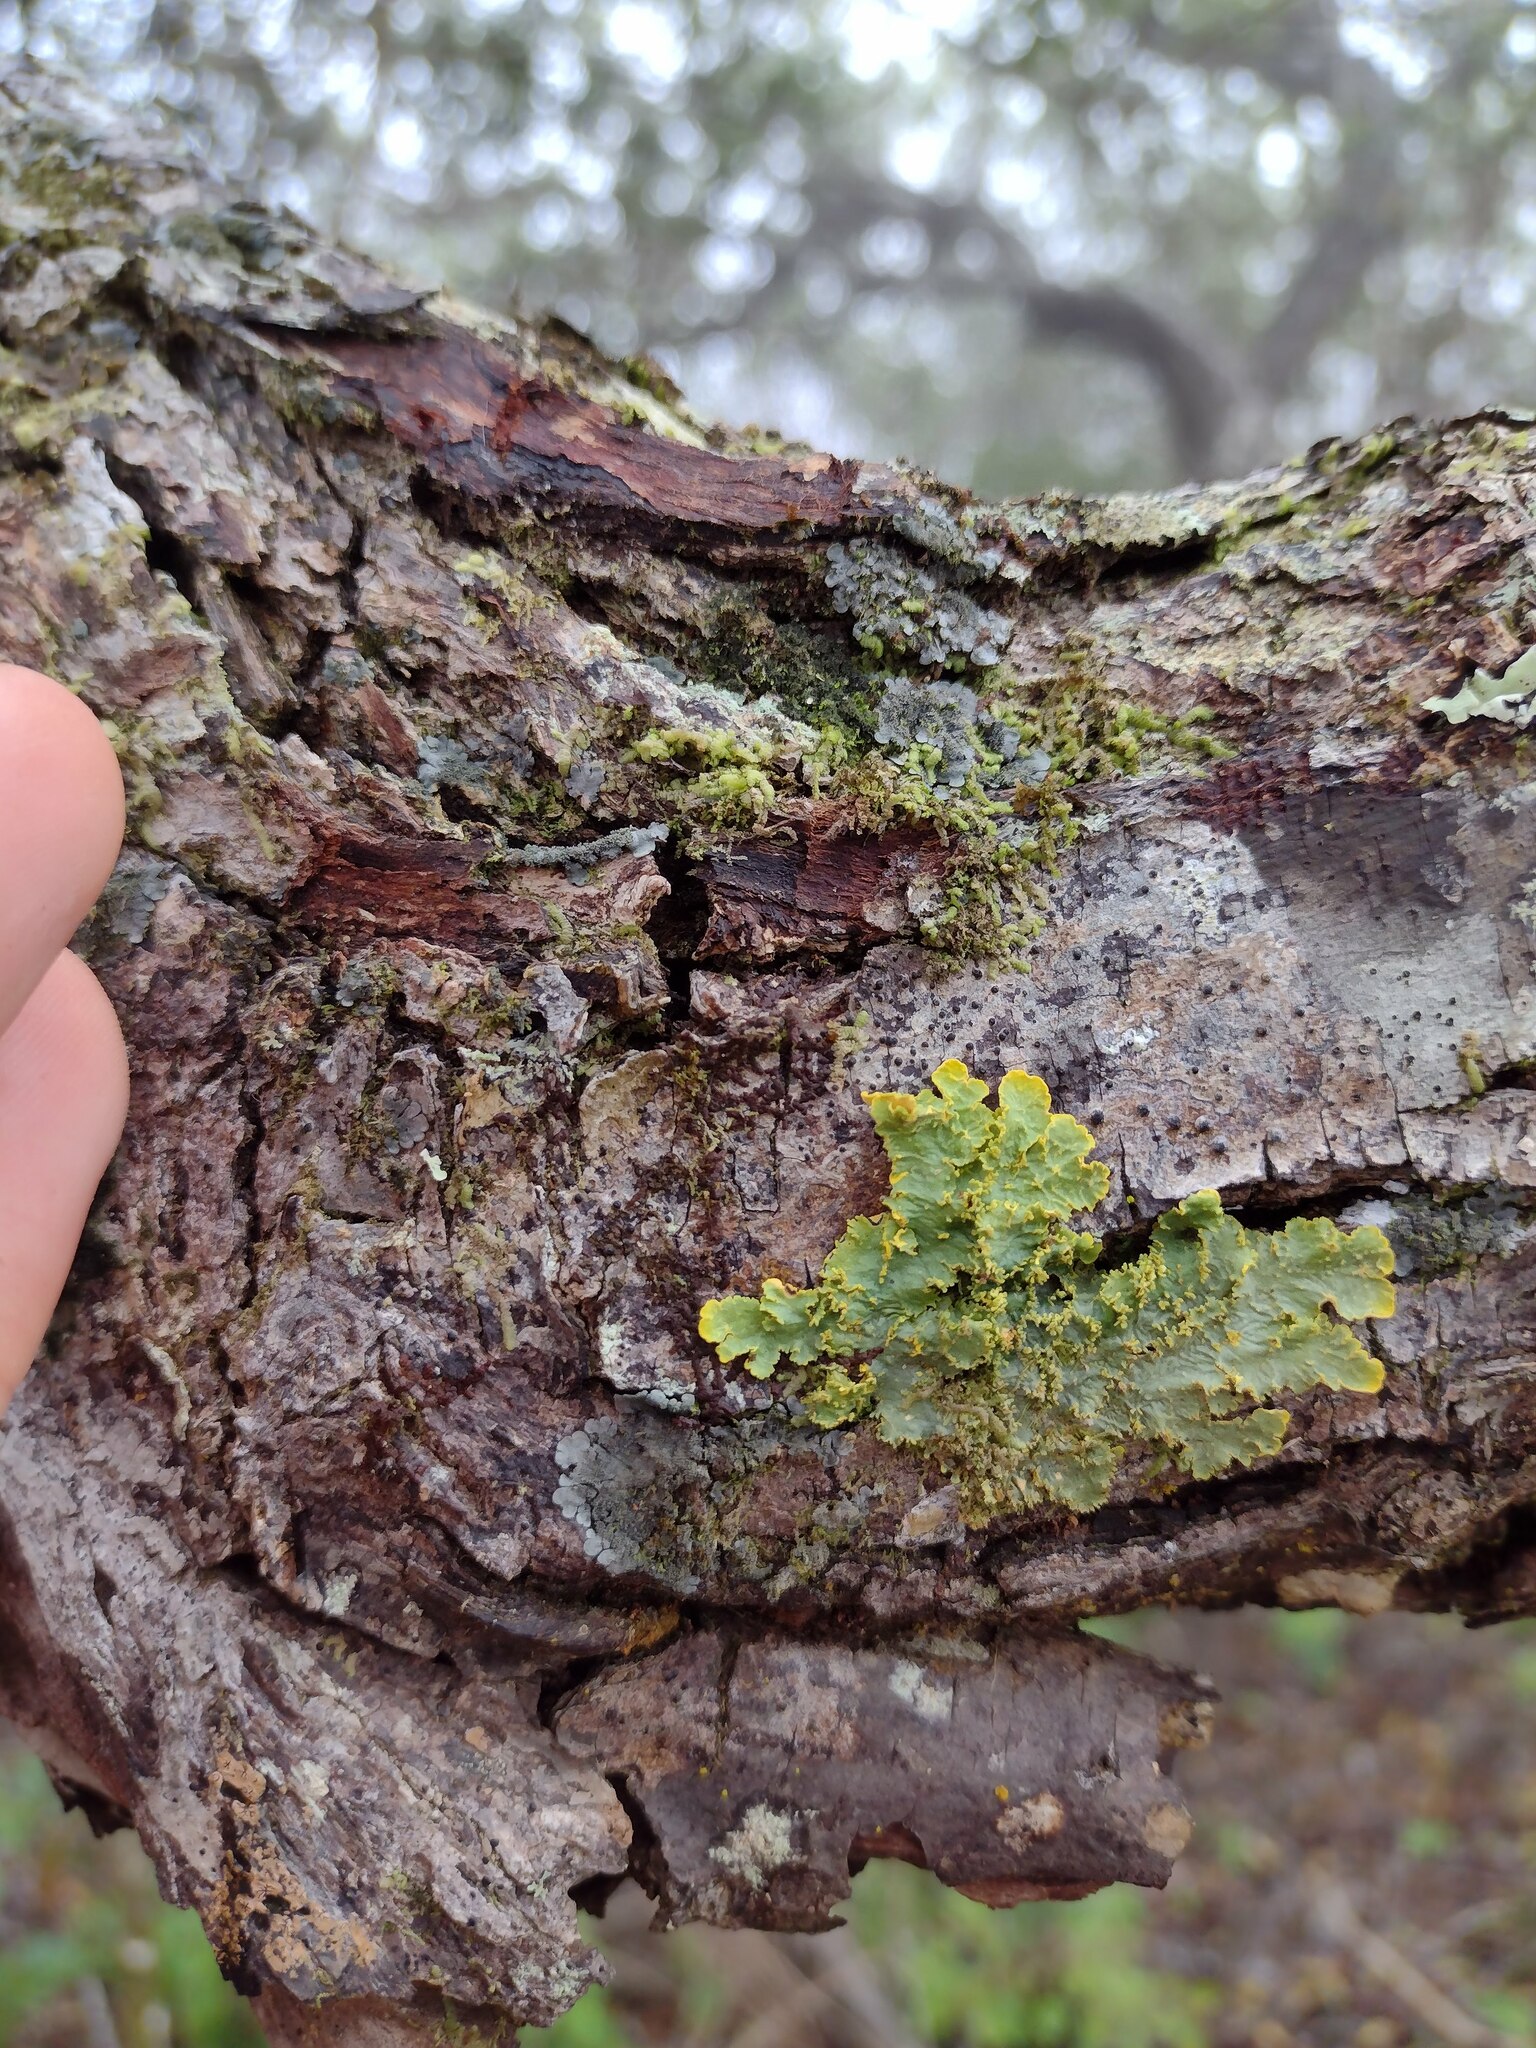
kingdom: Plantae
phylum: Marchantiophyta
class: Jungermanniopsida
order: Porellales
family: Frullaniaceae
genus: Frullania
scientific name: Frullania meyeniana
